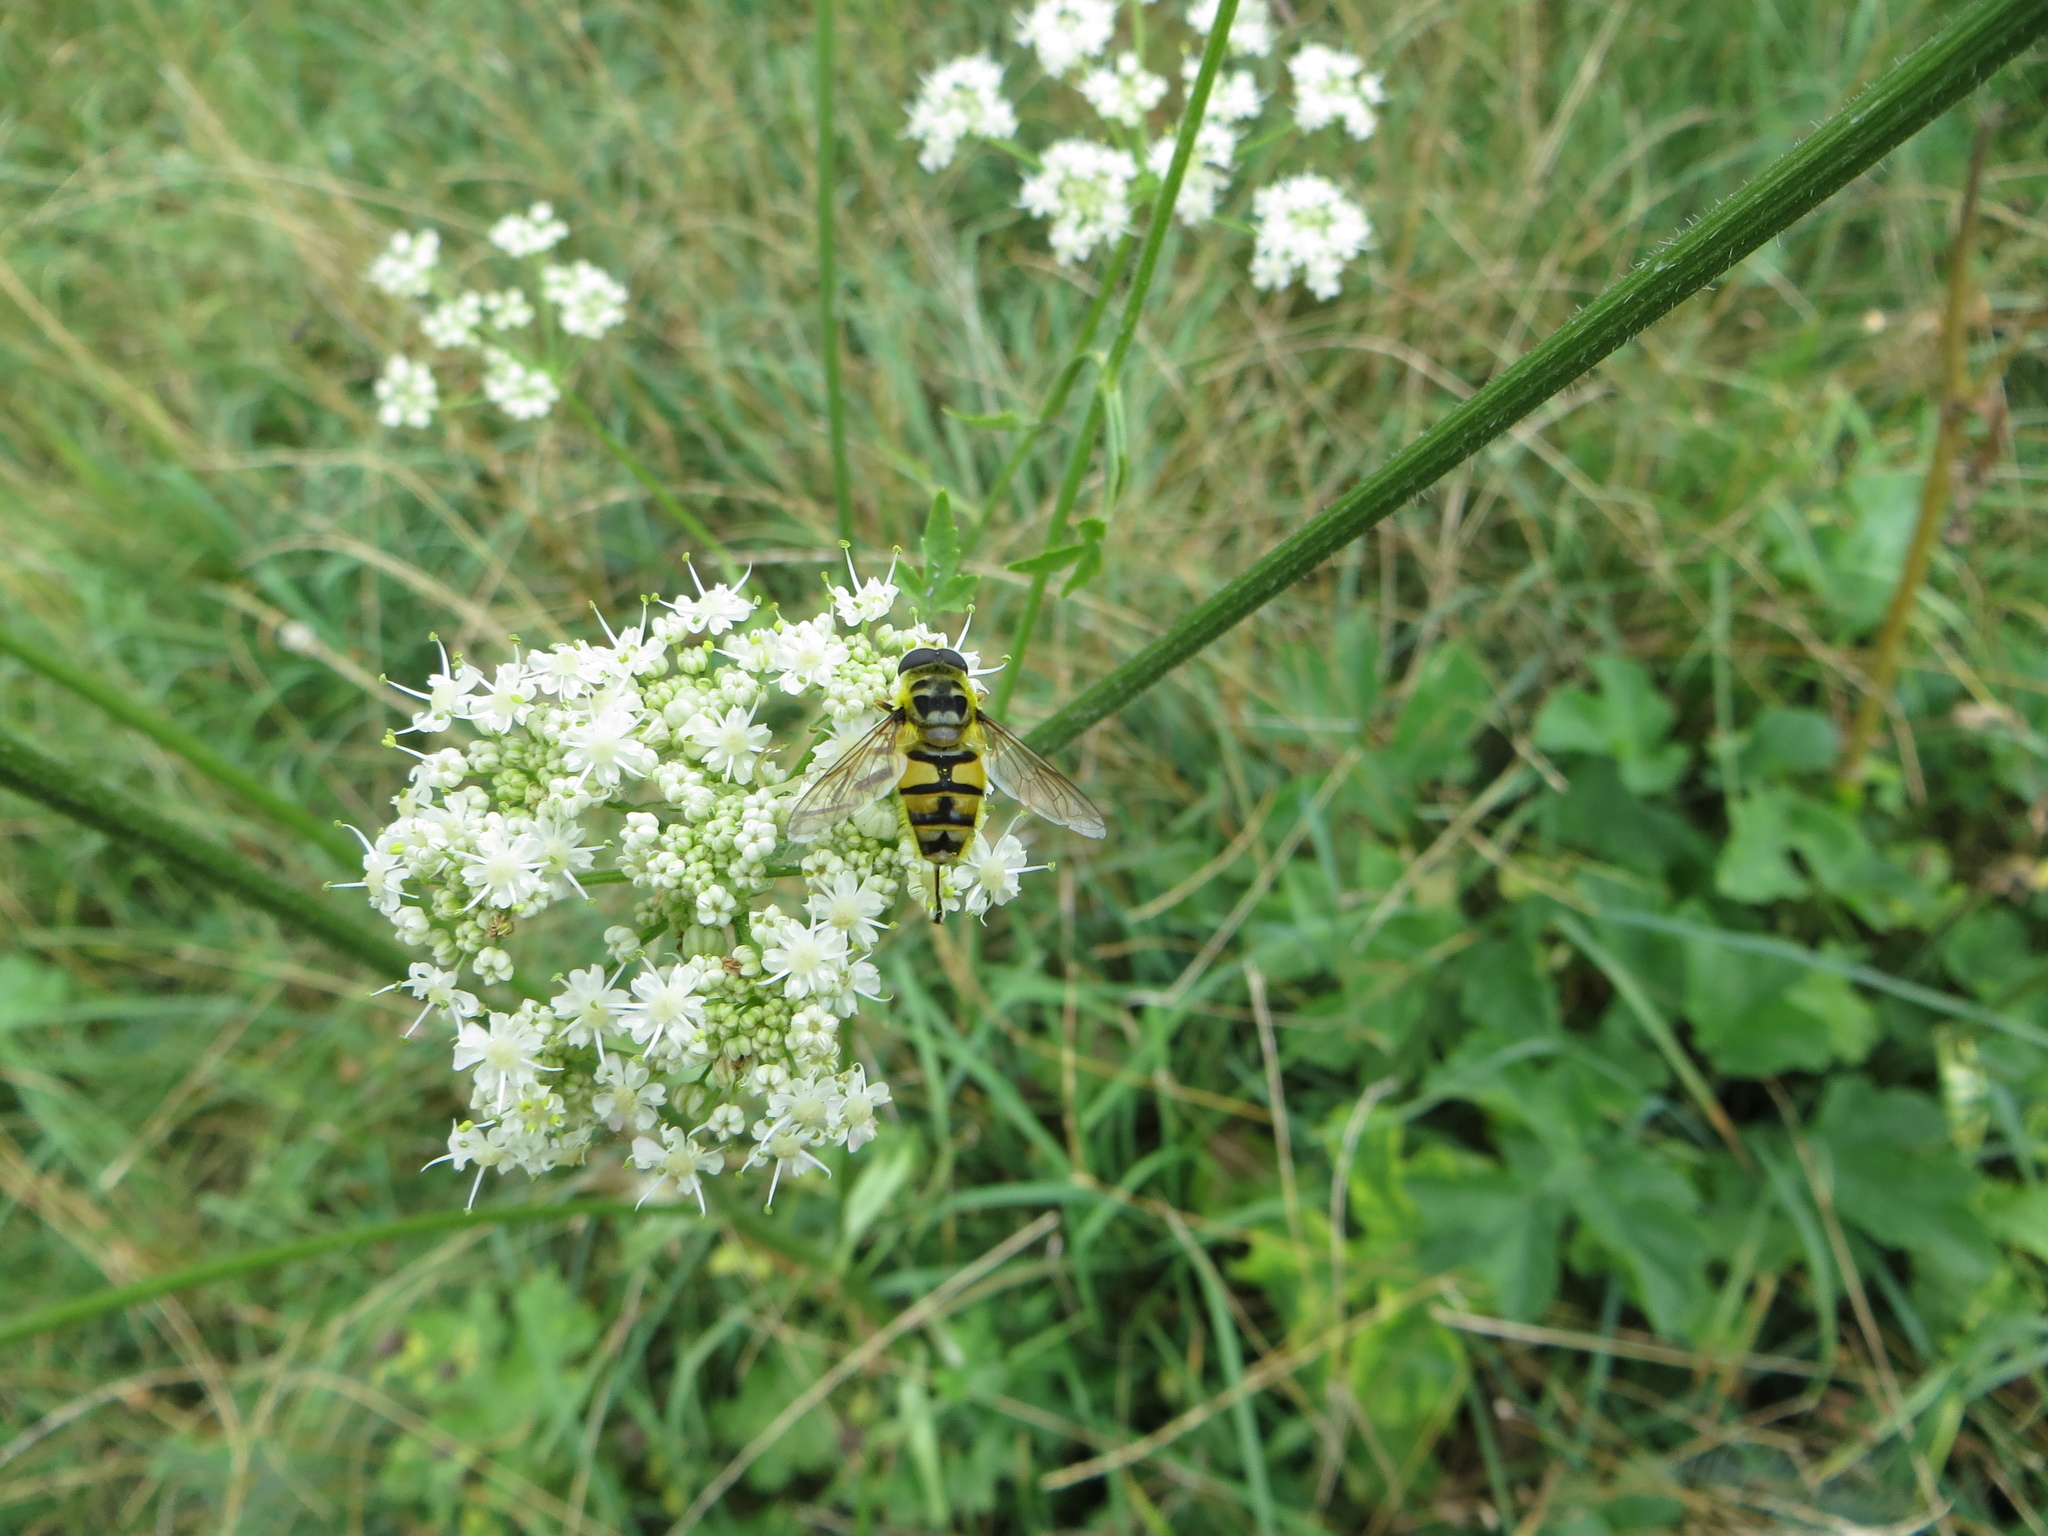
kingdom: Animalia
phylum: Arthropoda
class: Insecta
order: Diptera
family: Syrphidae
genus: Myathropa
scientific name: Myathropa florea
